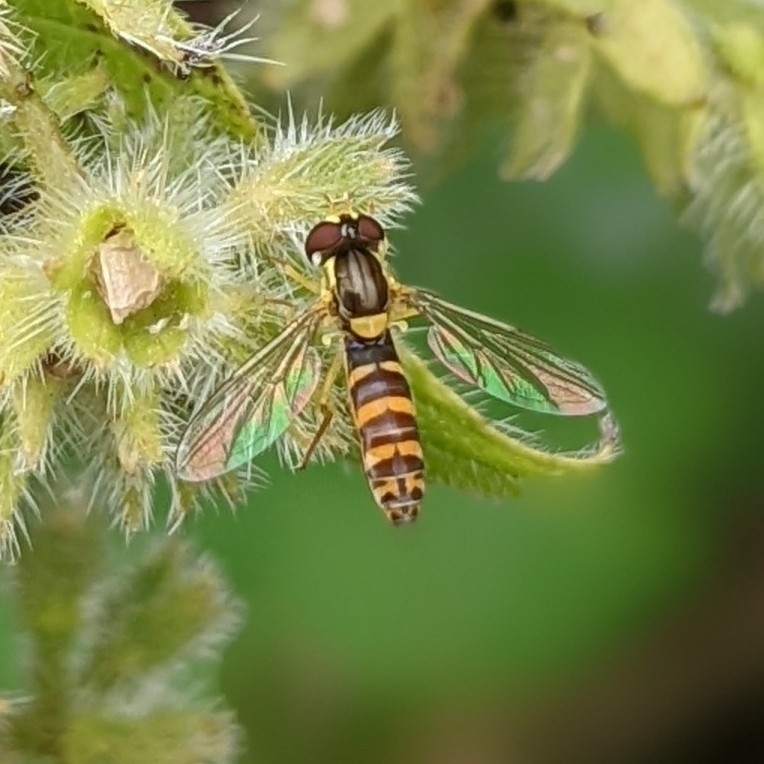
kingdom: Animalia
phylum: Arthropoda
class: Insecta
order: Diptera
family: Syrphidae
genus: Sphaerophoria
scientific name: Sphaerophoria
